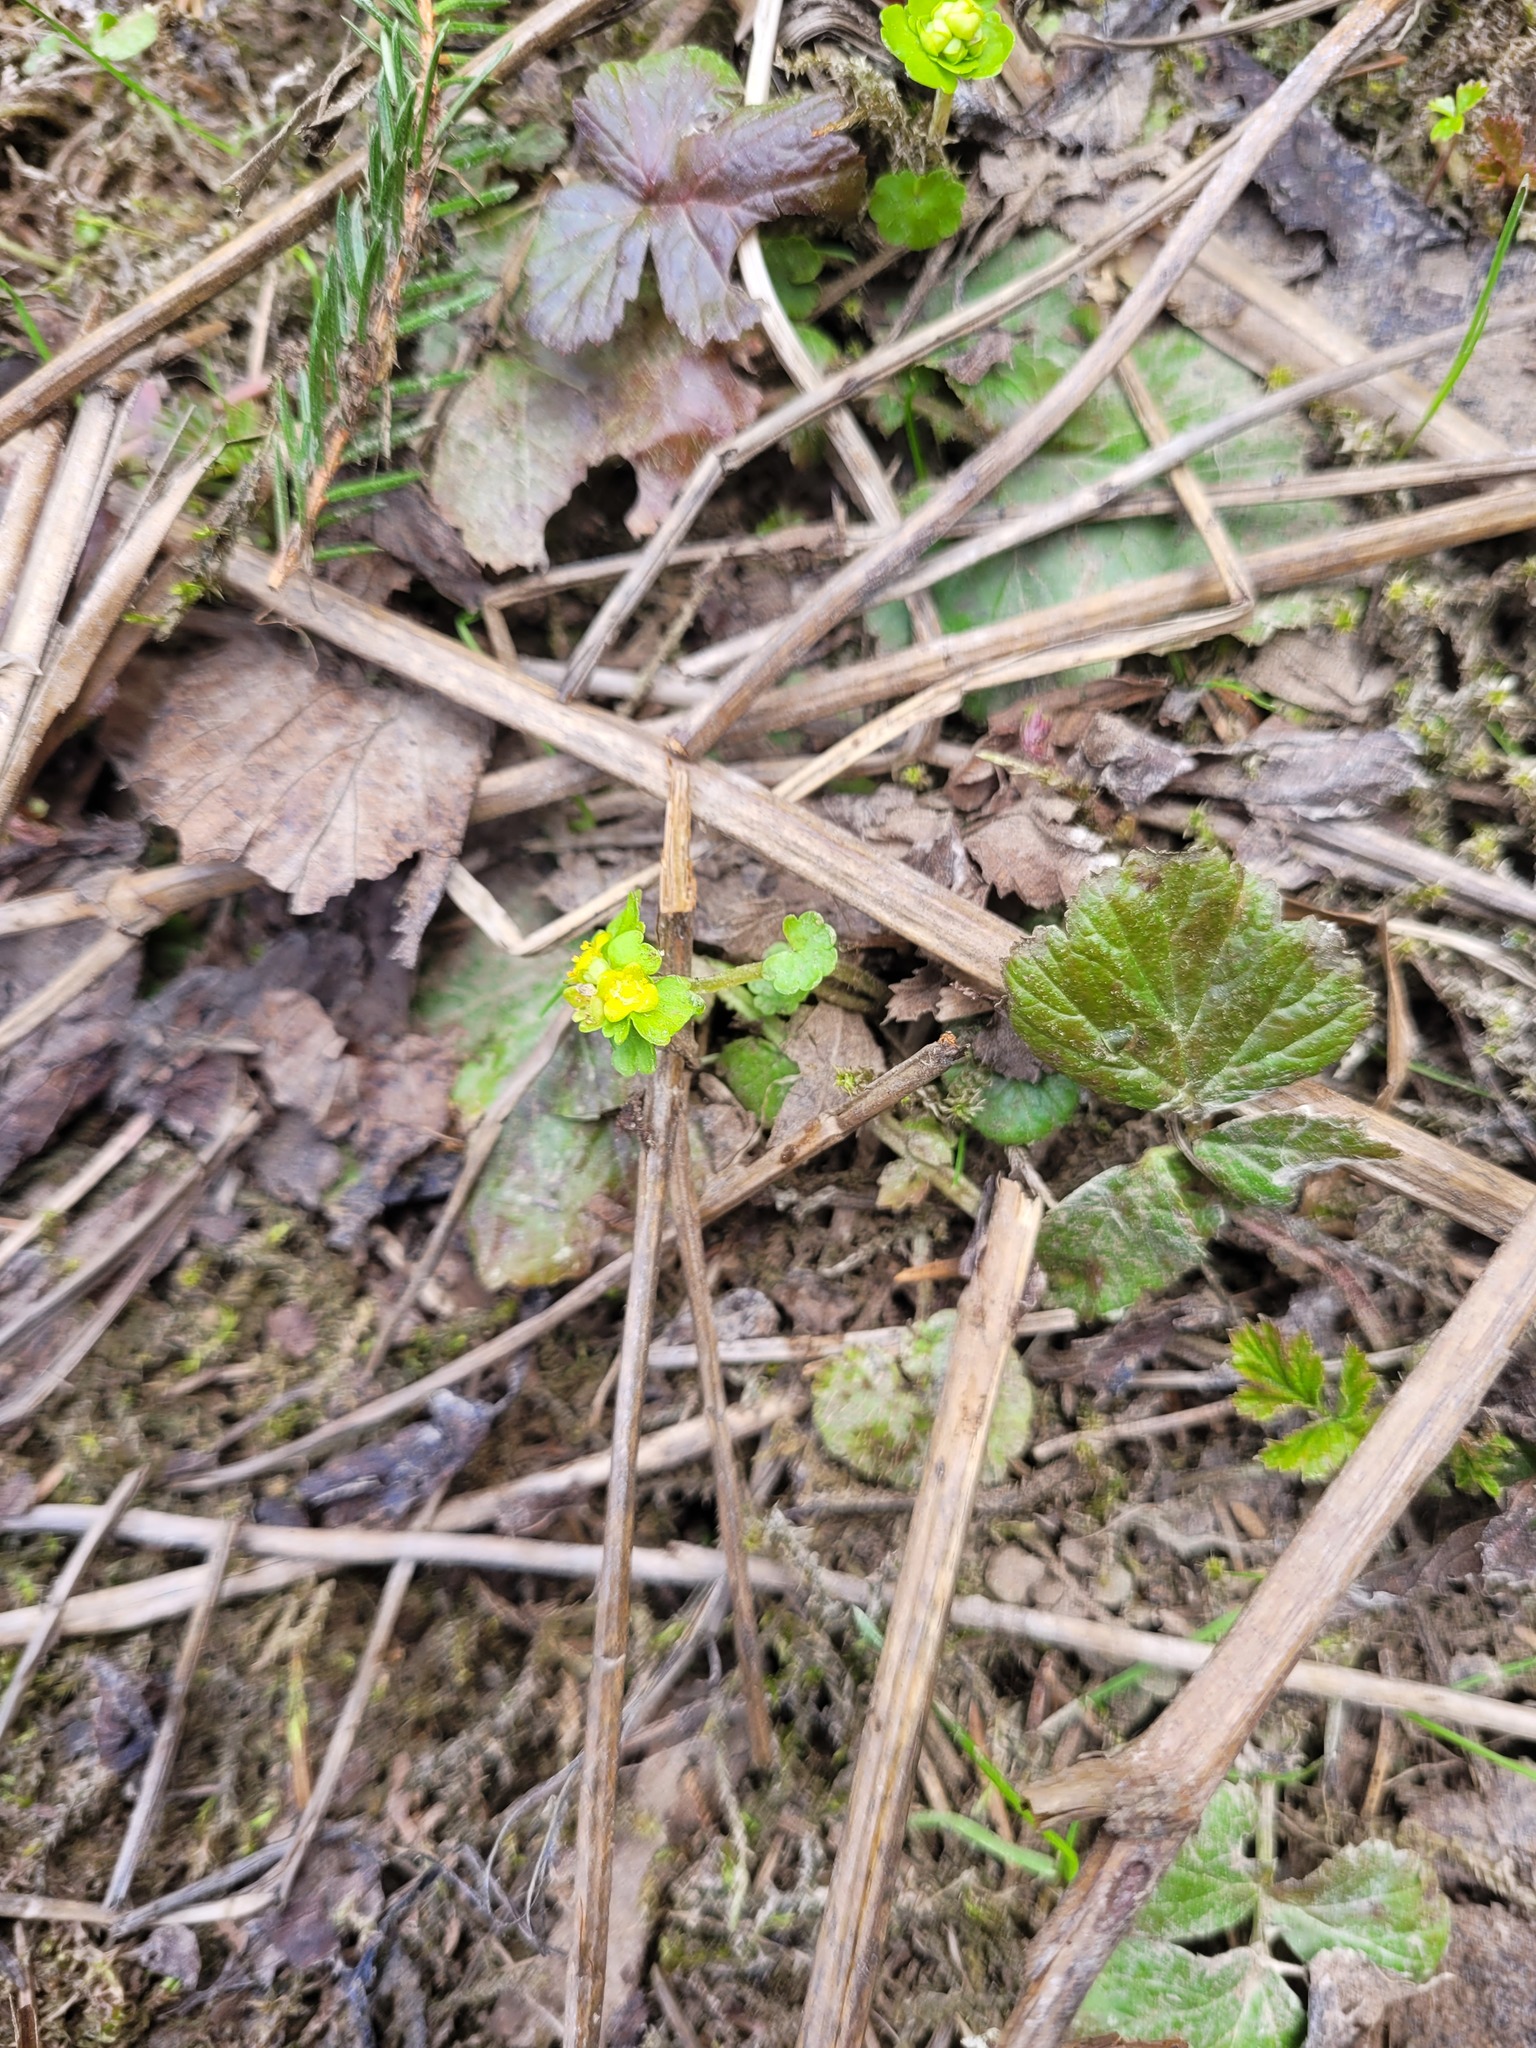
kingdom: Plantae
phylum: Tracheophyta
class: Magnoliopsida
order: Saxifragales
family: Saxifragaceae
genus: Chrysosplenium
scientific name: Chrysosplenium alternifolium
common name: Alternate-leaved golden-saxifrage
